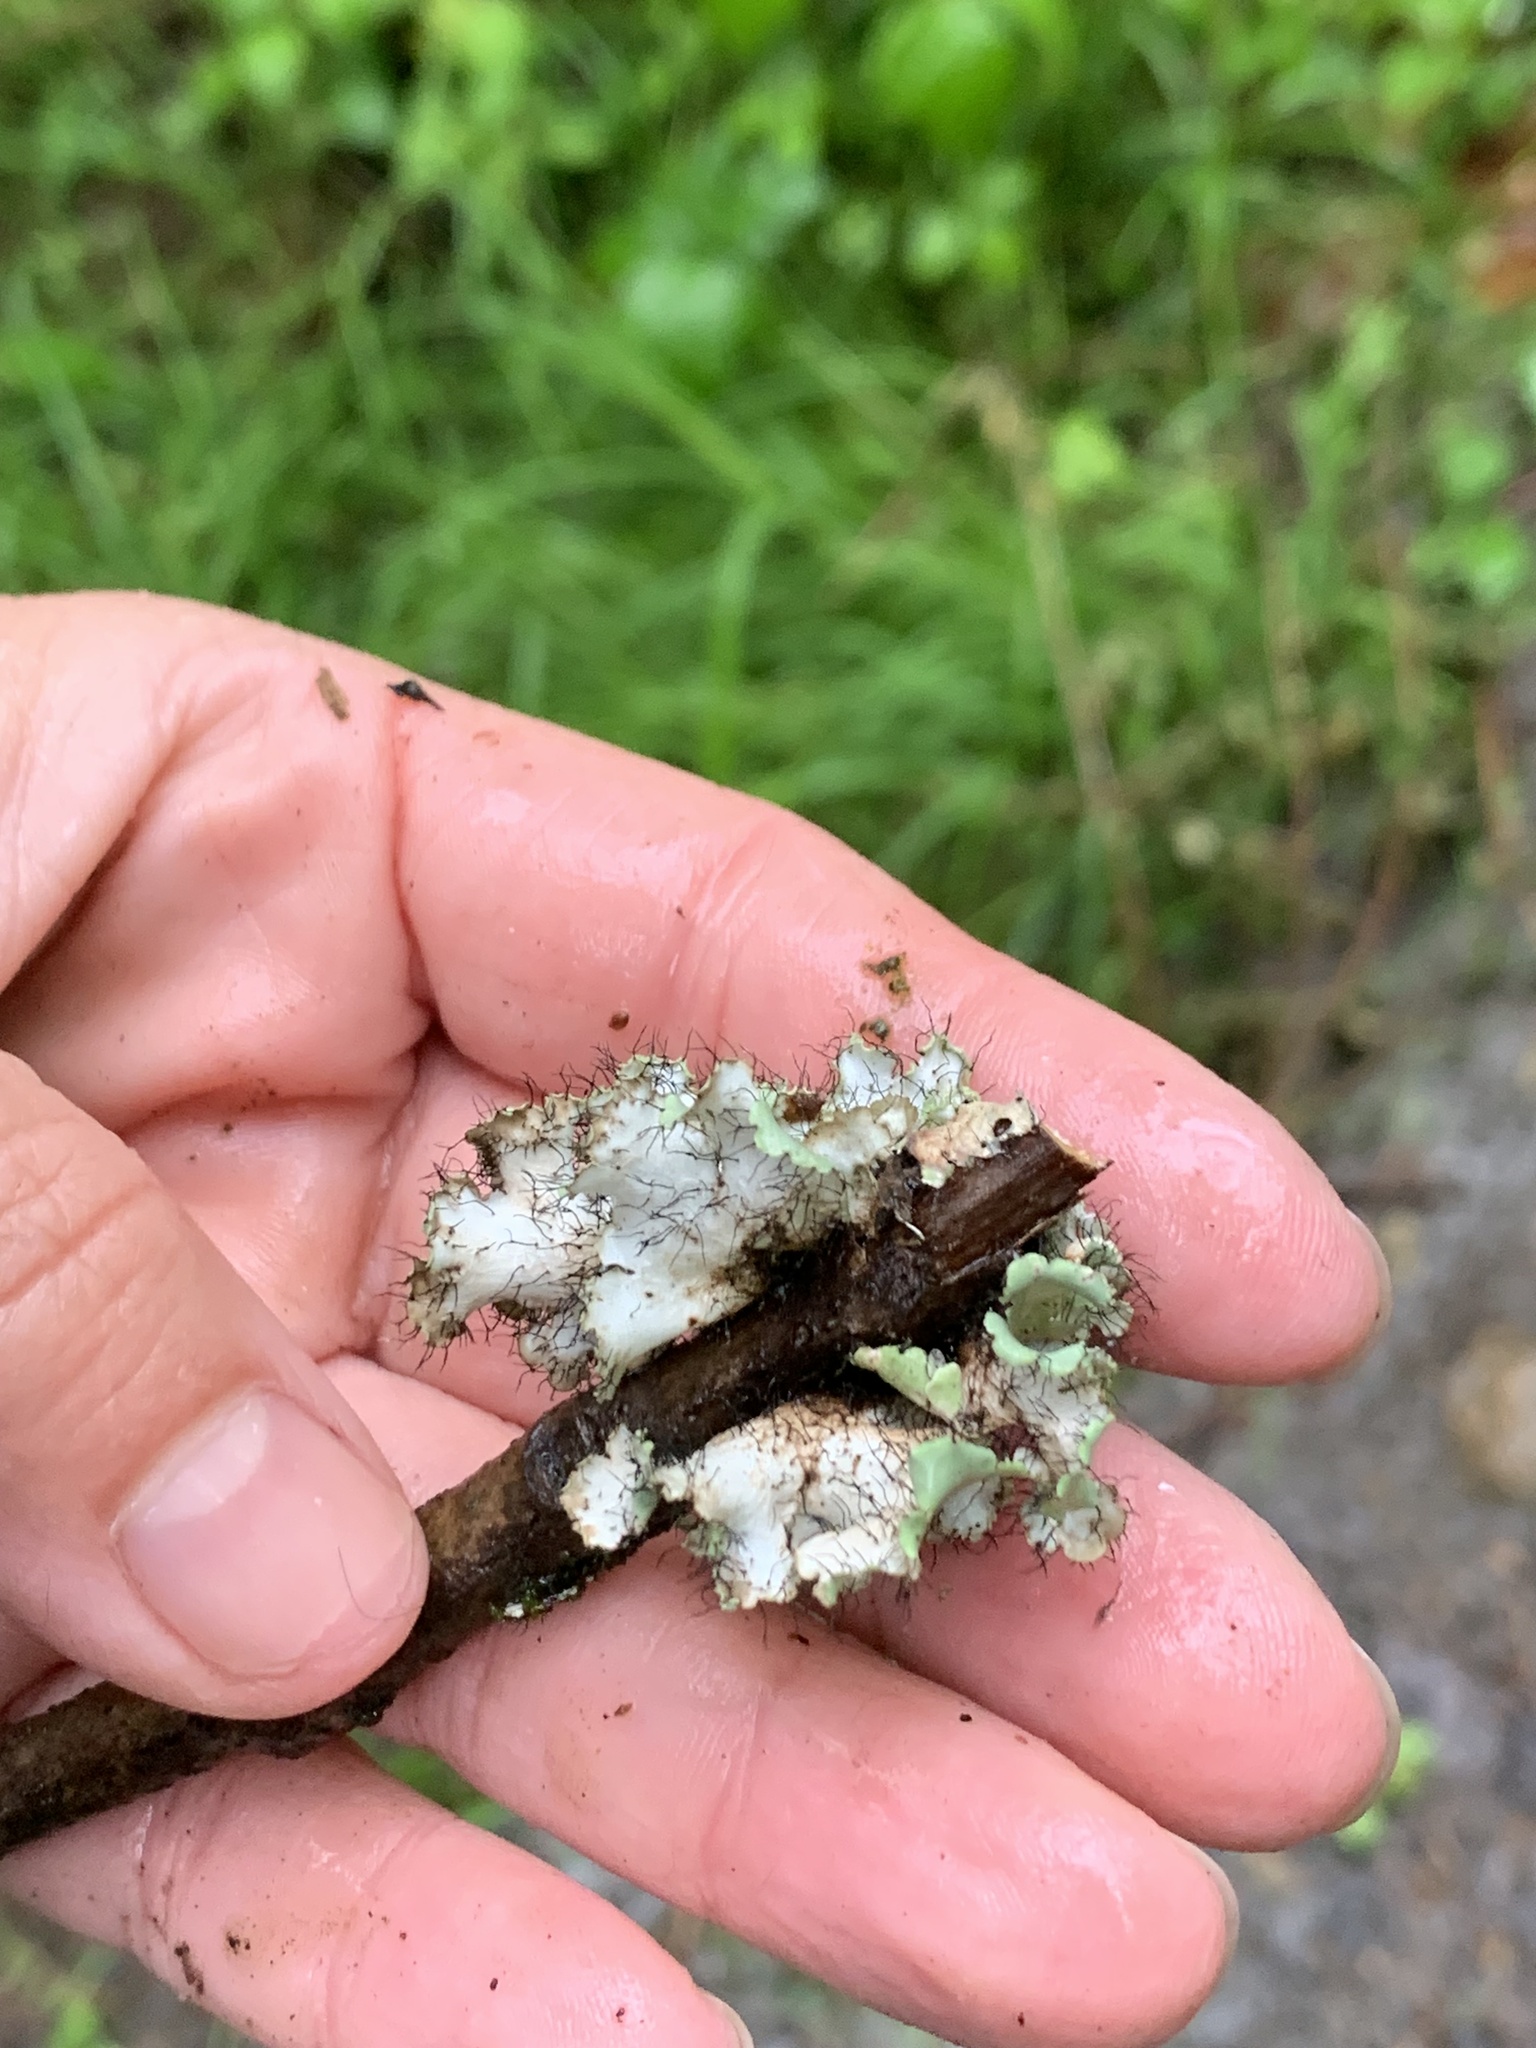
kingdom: Fungi
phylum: Ascomycota
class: Lecanoromycetes
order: Lecanorales
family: Parmeliaceae
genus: Parmotrema
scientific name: Parmotrema hypotropum
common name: Powdered ruffle lichen
